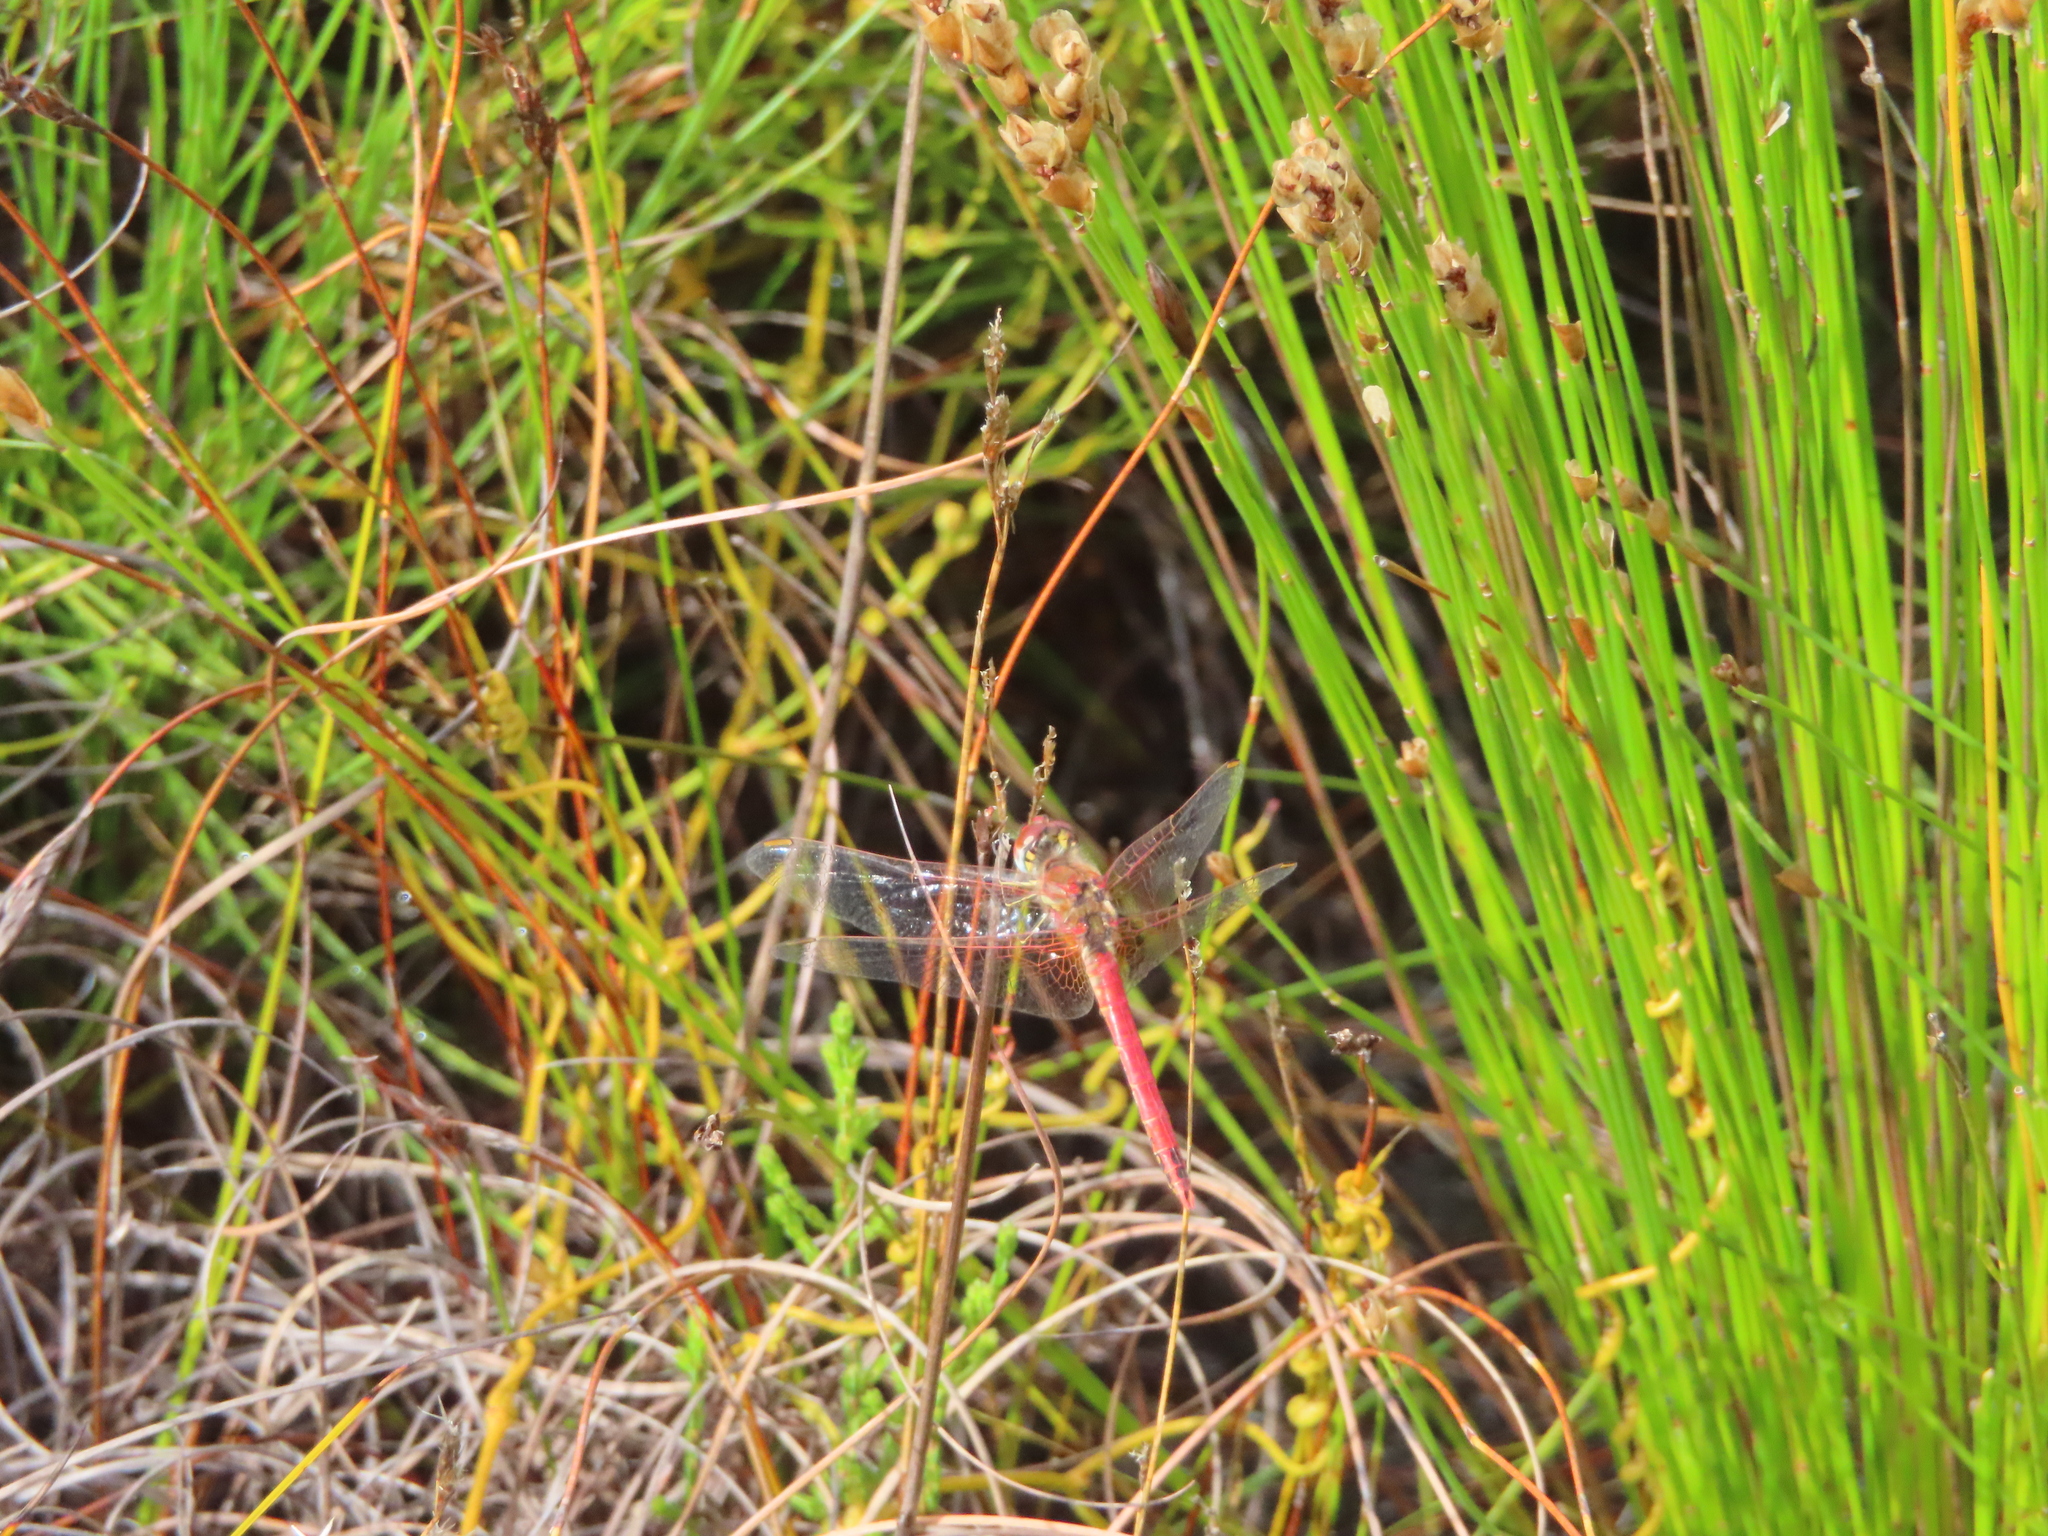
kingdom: Animalia
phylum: Arthropoda
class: Insecta
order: Odonata
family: Libellulidae
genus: Sympetrum
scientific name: Sympetrum fonscolombii
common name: Red-veined darter
